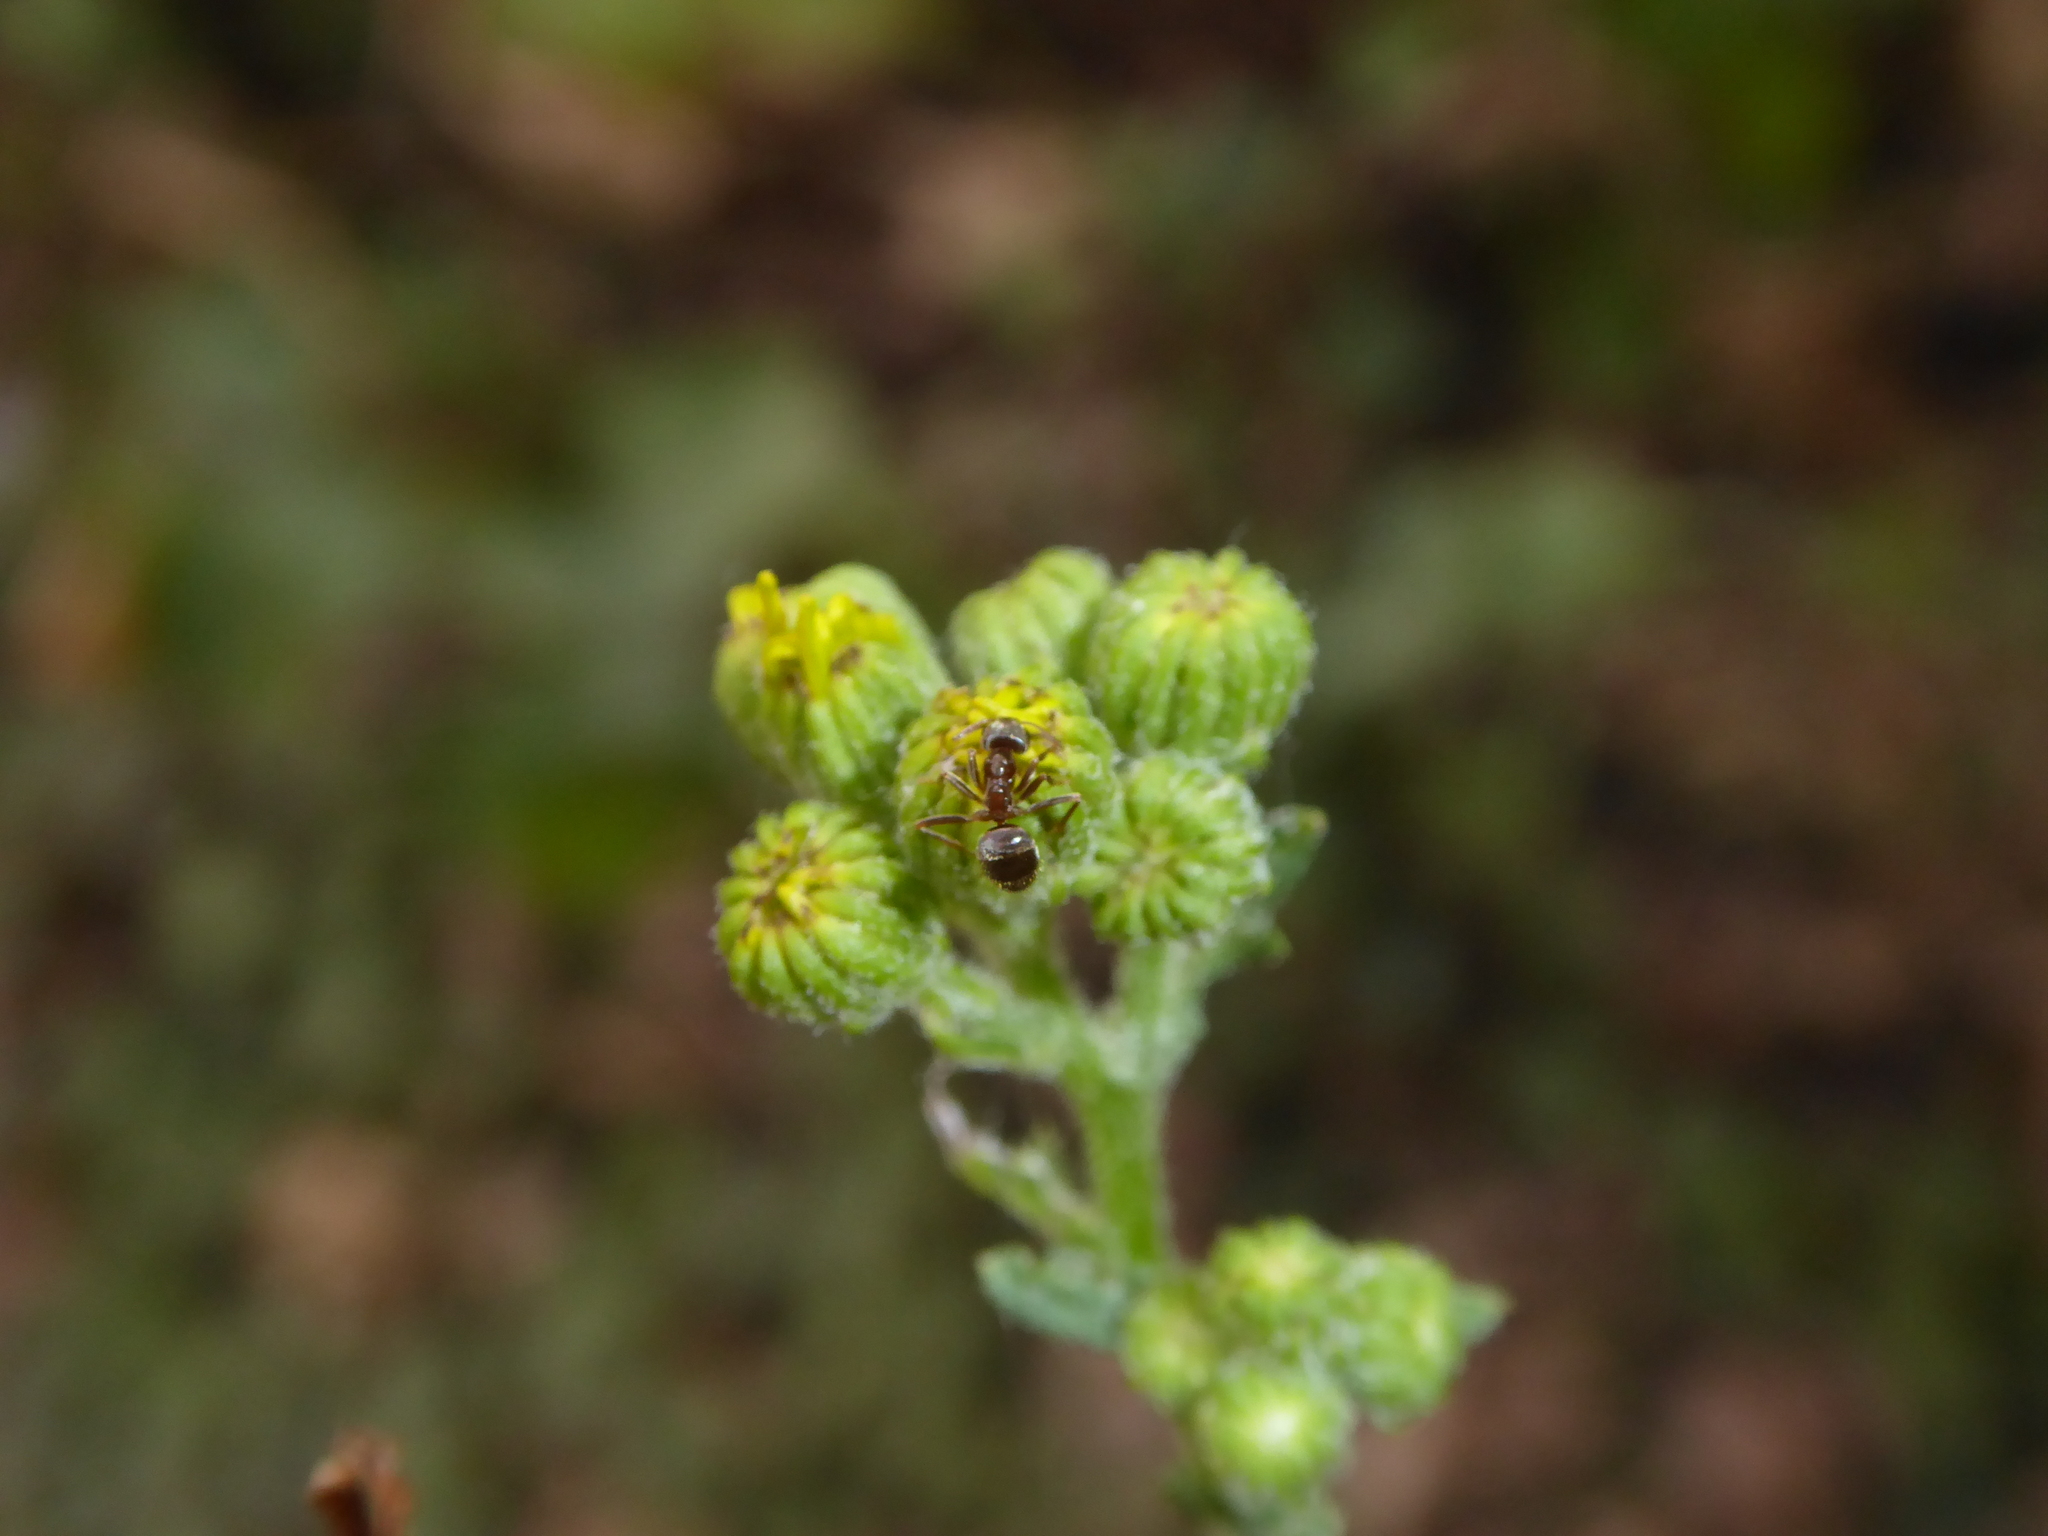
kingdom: Animalia
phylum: Arthropoda
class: Insecta
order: Hymenoptera
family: Formicidae
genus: Lasius
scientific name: Lasius
